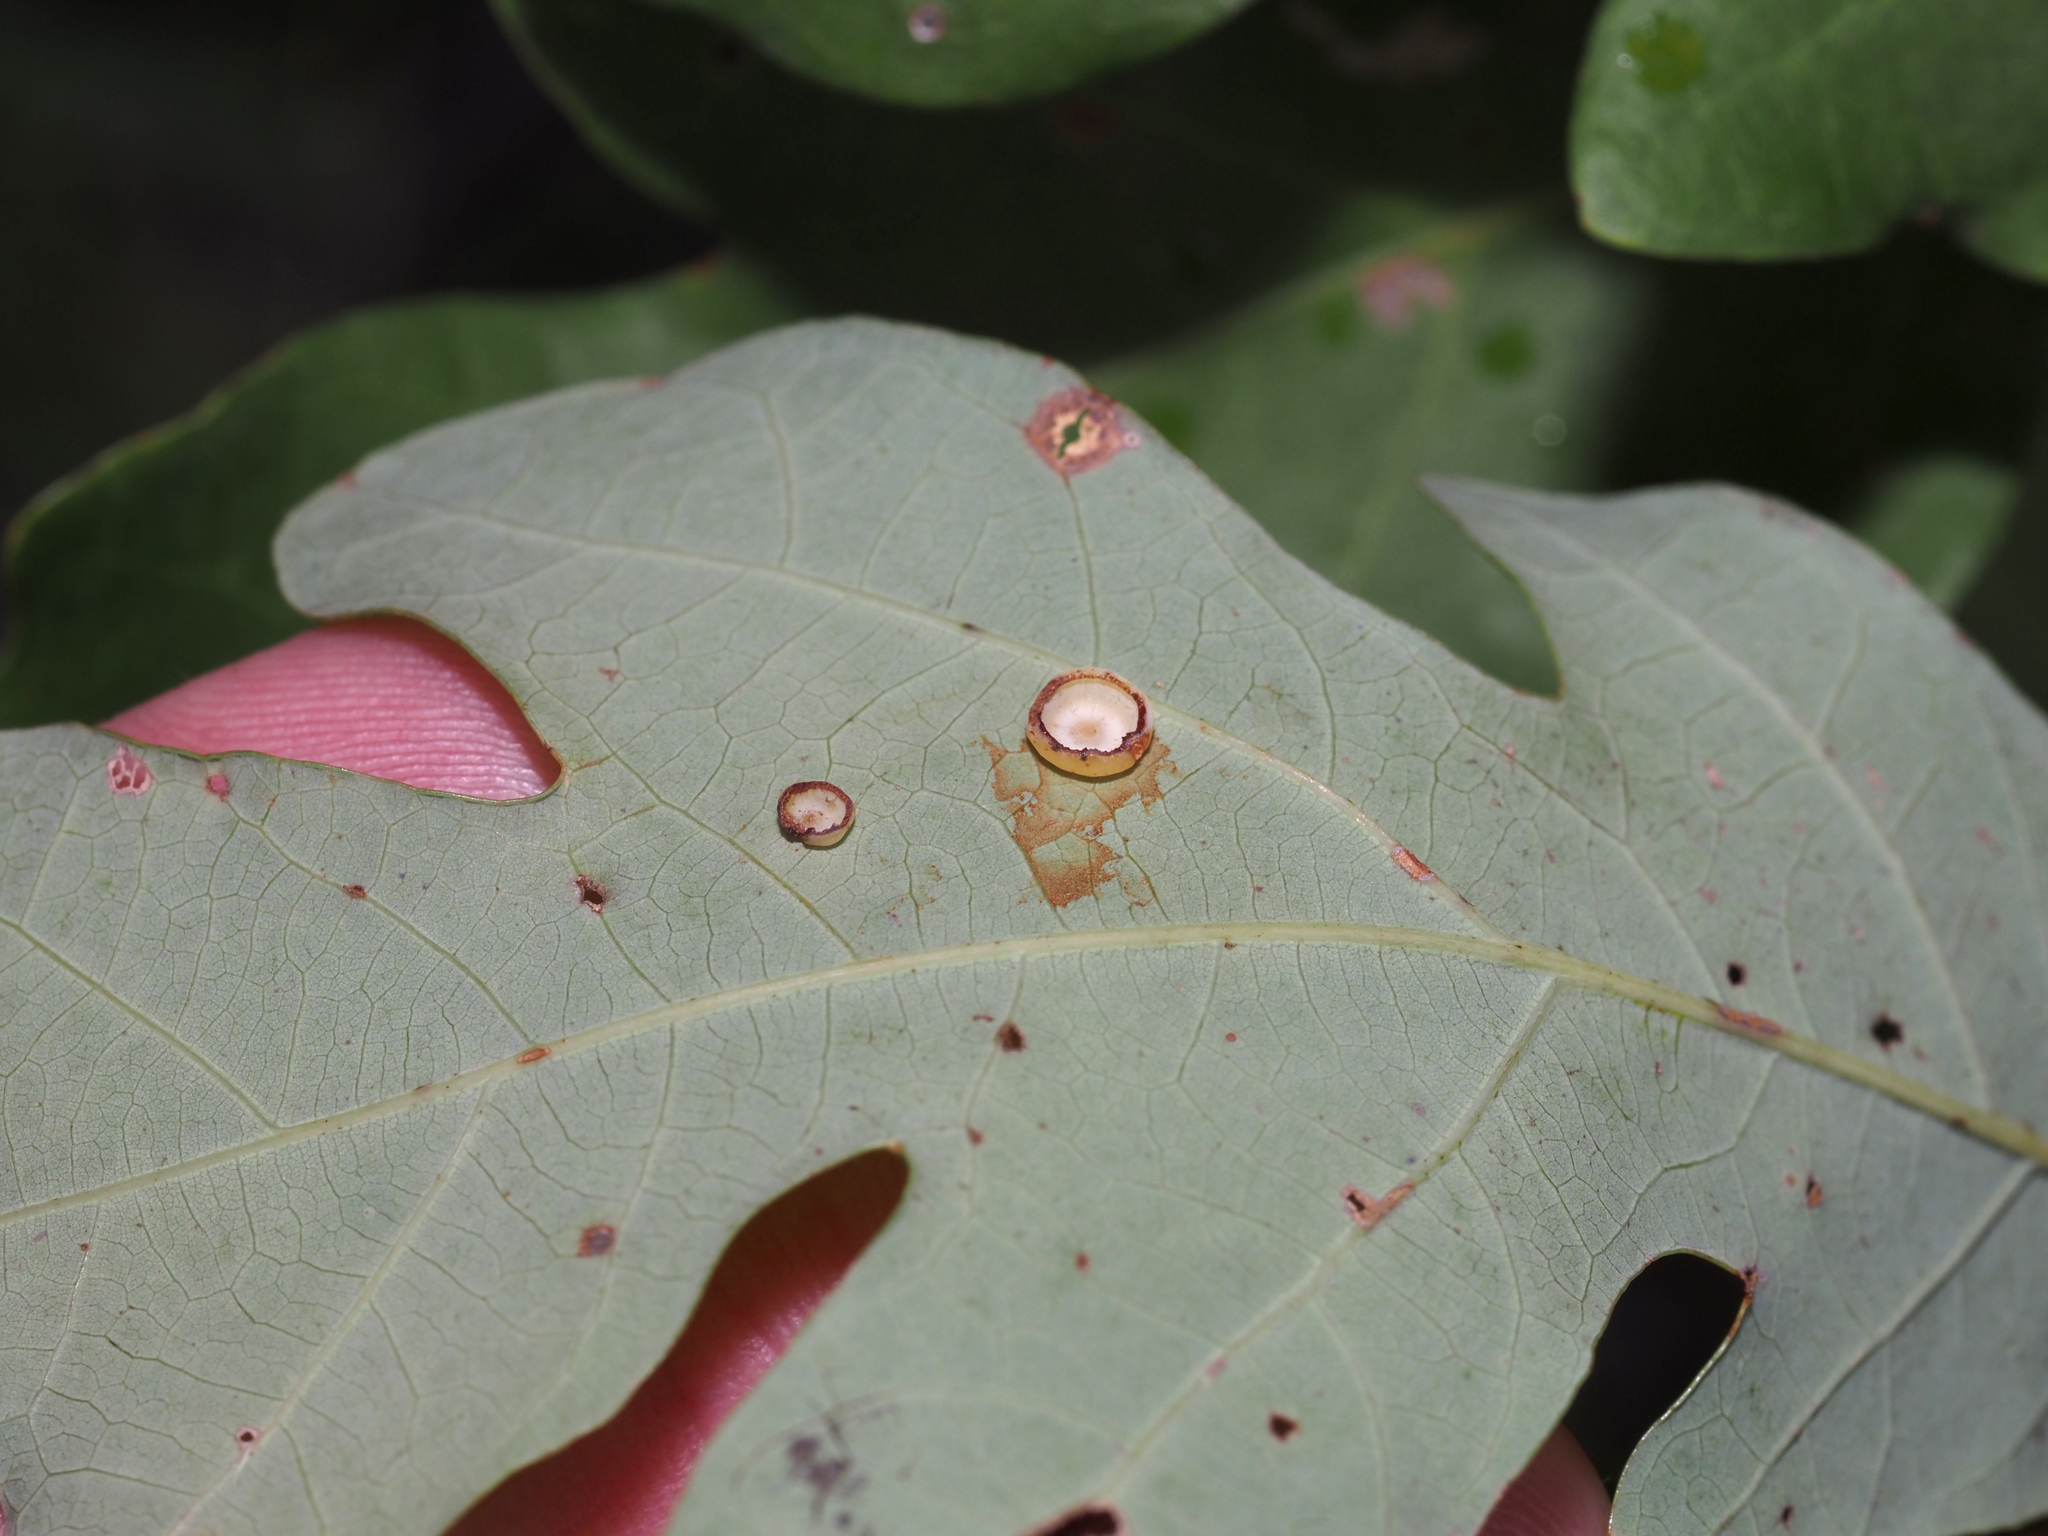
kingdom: Animalia
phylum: Arthropoda
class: Insecta
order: Hymenoptera
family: Cynipidae
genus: Phylloteras
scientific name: Phylloteras poculum
